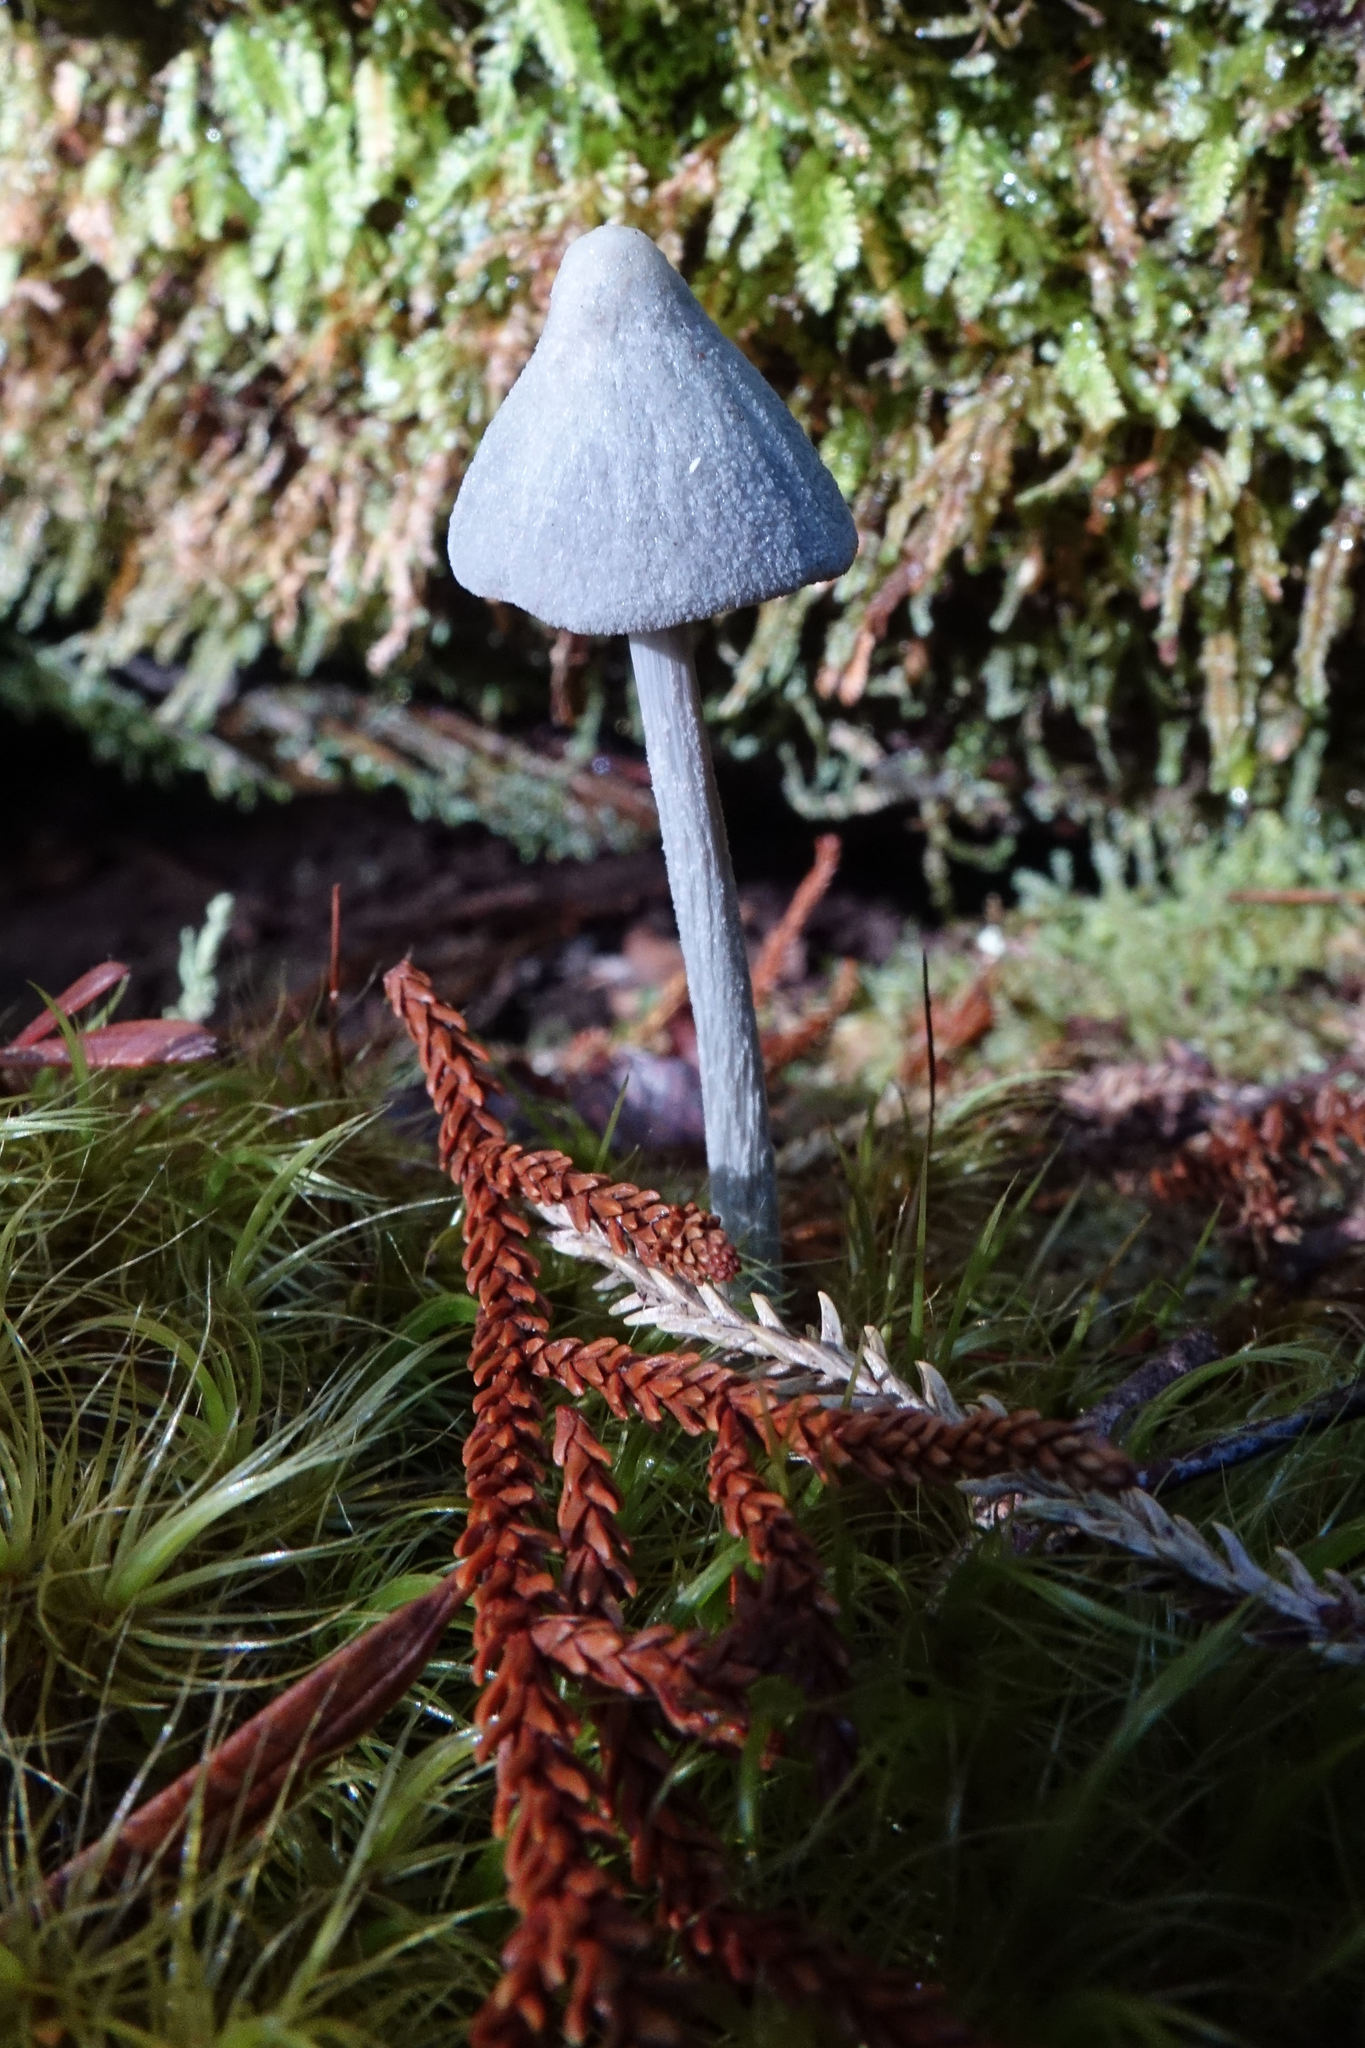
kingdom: Fungi
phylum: Basidiomycota
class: Agaricomycetes
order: Agaricales
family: Entolomataceae
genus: Entoloma
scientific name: Entoloma hochstetteri
